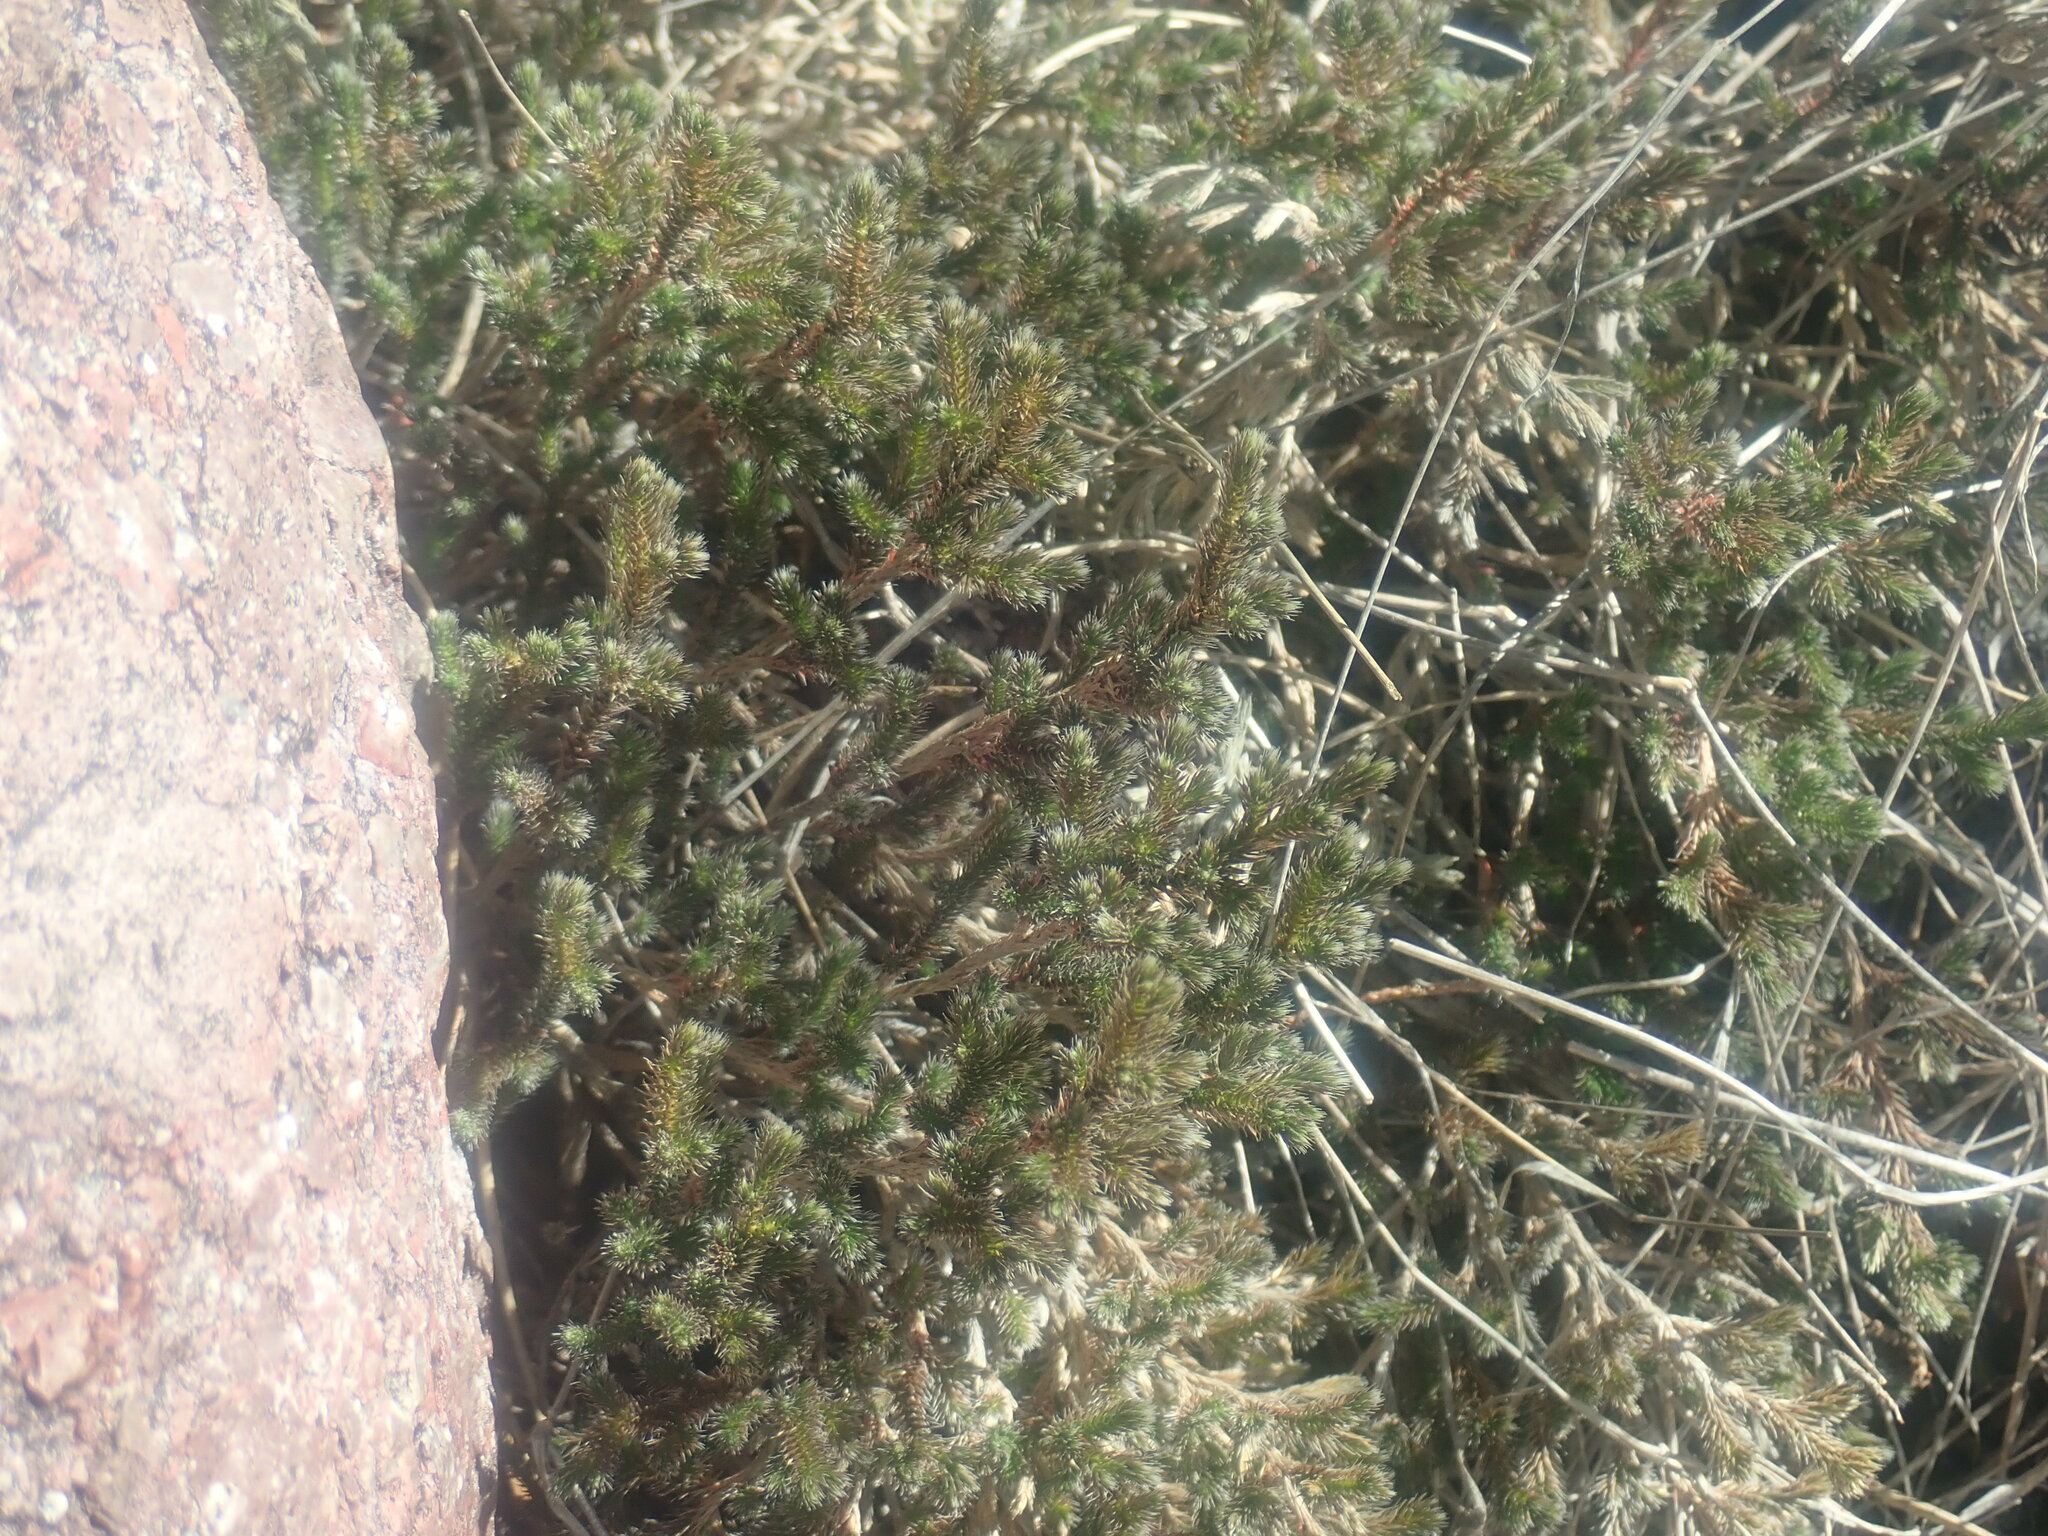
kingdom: Plantae
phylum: Tracheophyta
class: Lycopodiopsida
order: Selaginellales
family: Selaginellaceae
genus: Selaginella
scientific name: Selaginella rupincola
